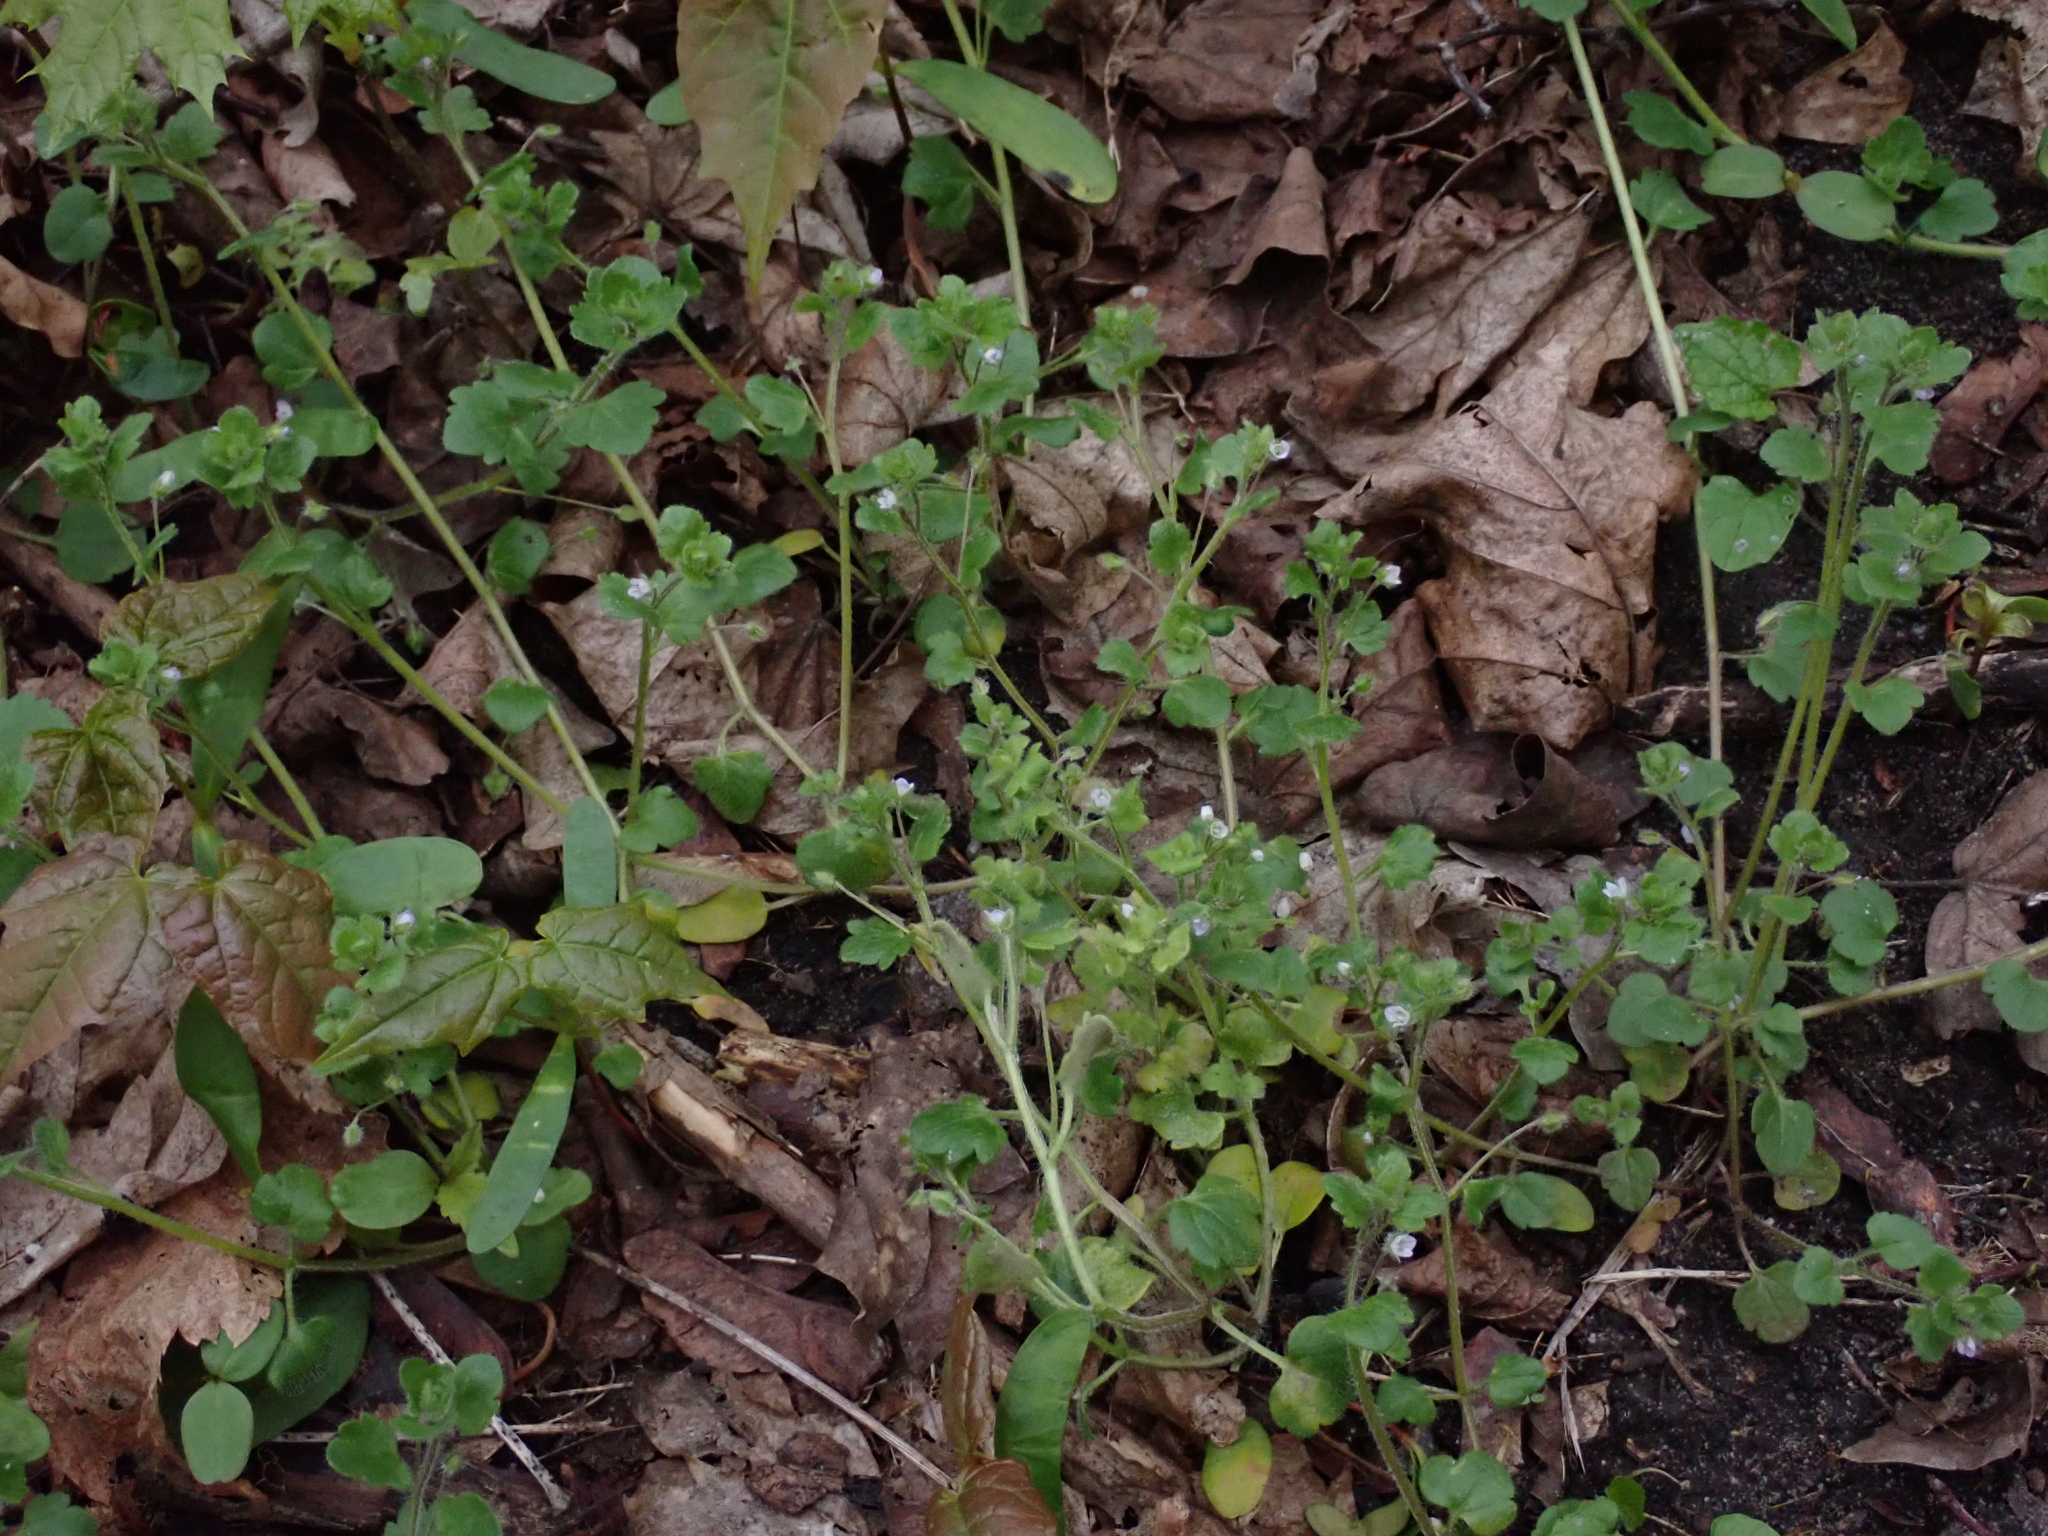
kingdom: Plantae
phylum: Tracheophyta
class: Magnoliopsida
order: Lamiales
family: Plantaginaceae
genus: Veronica
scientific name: Veronica sublobata
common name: False ivy-leaved speedwell
